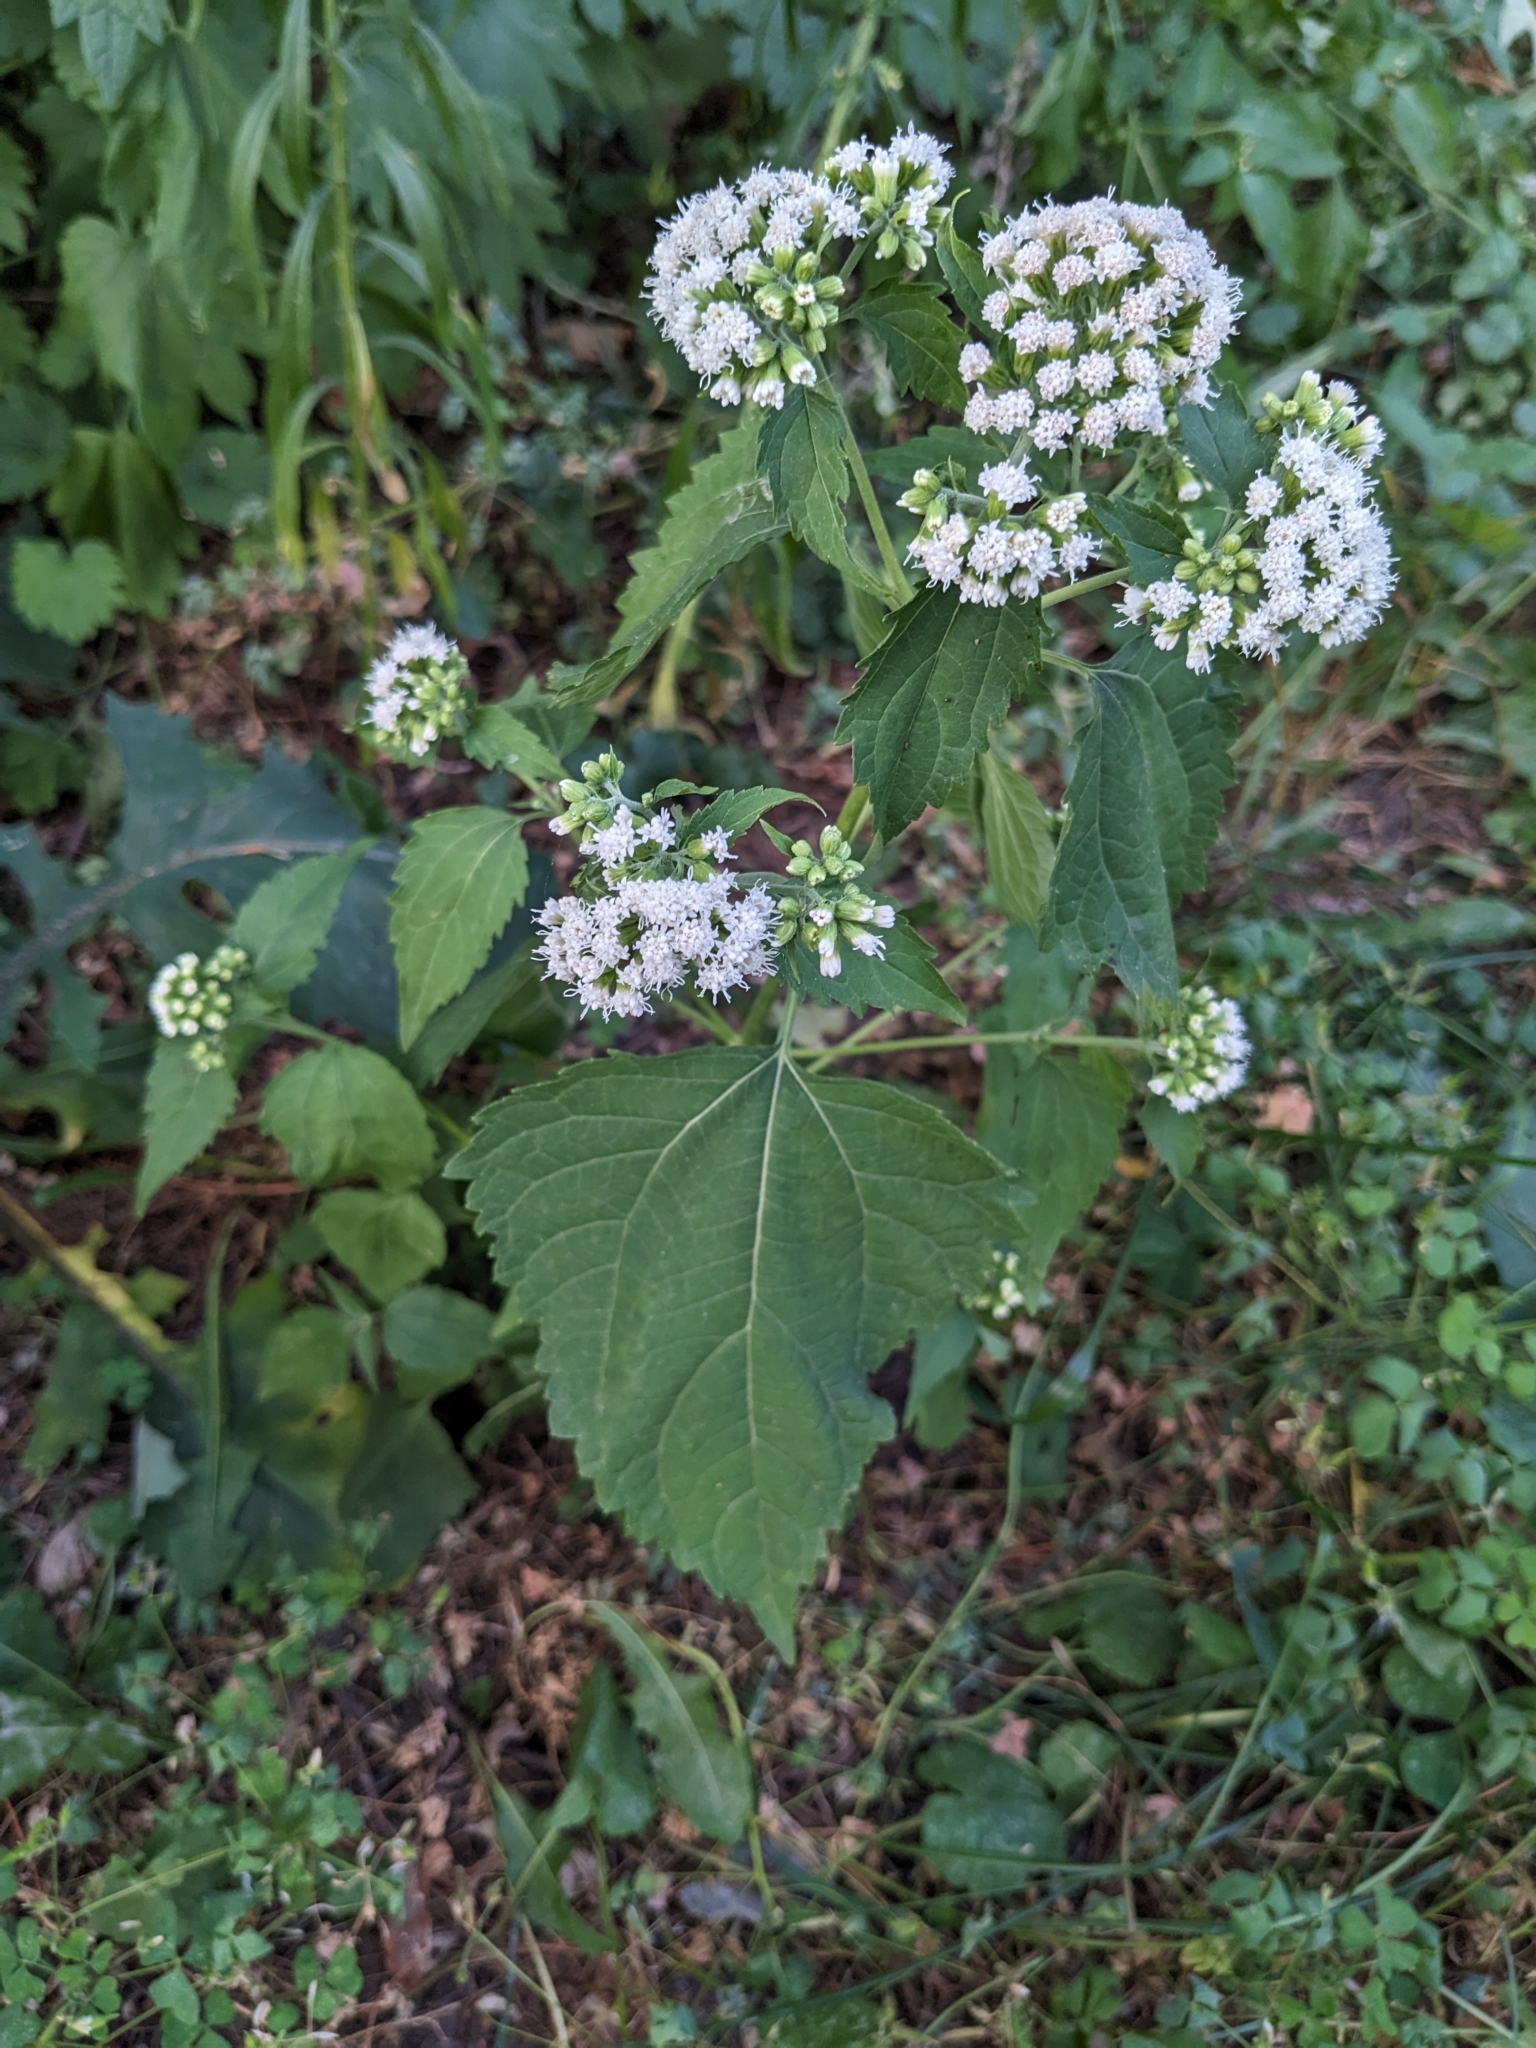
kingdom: Plantae
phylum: Tracheophyta
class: Magnoliopsida
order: Asterales
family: Asteraceae
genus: Ageratina
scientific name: Ageratina altissima
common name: White snakeroot
